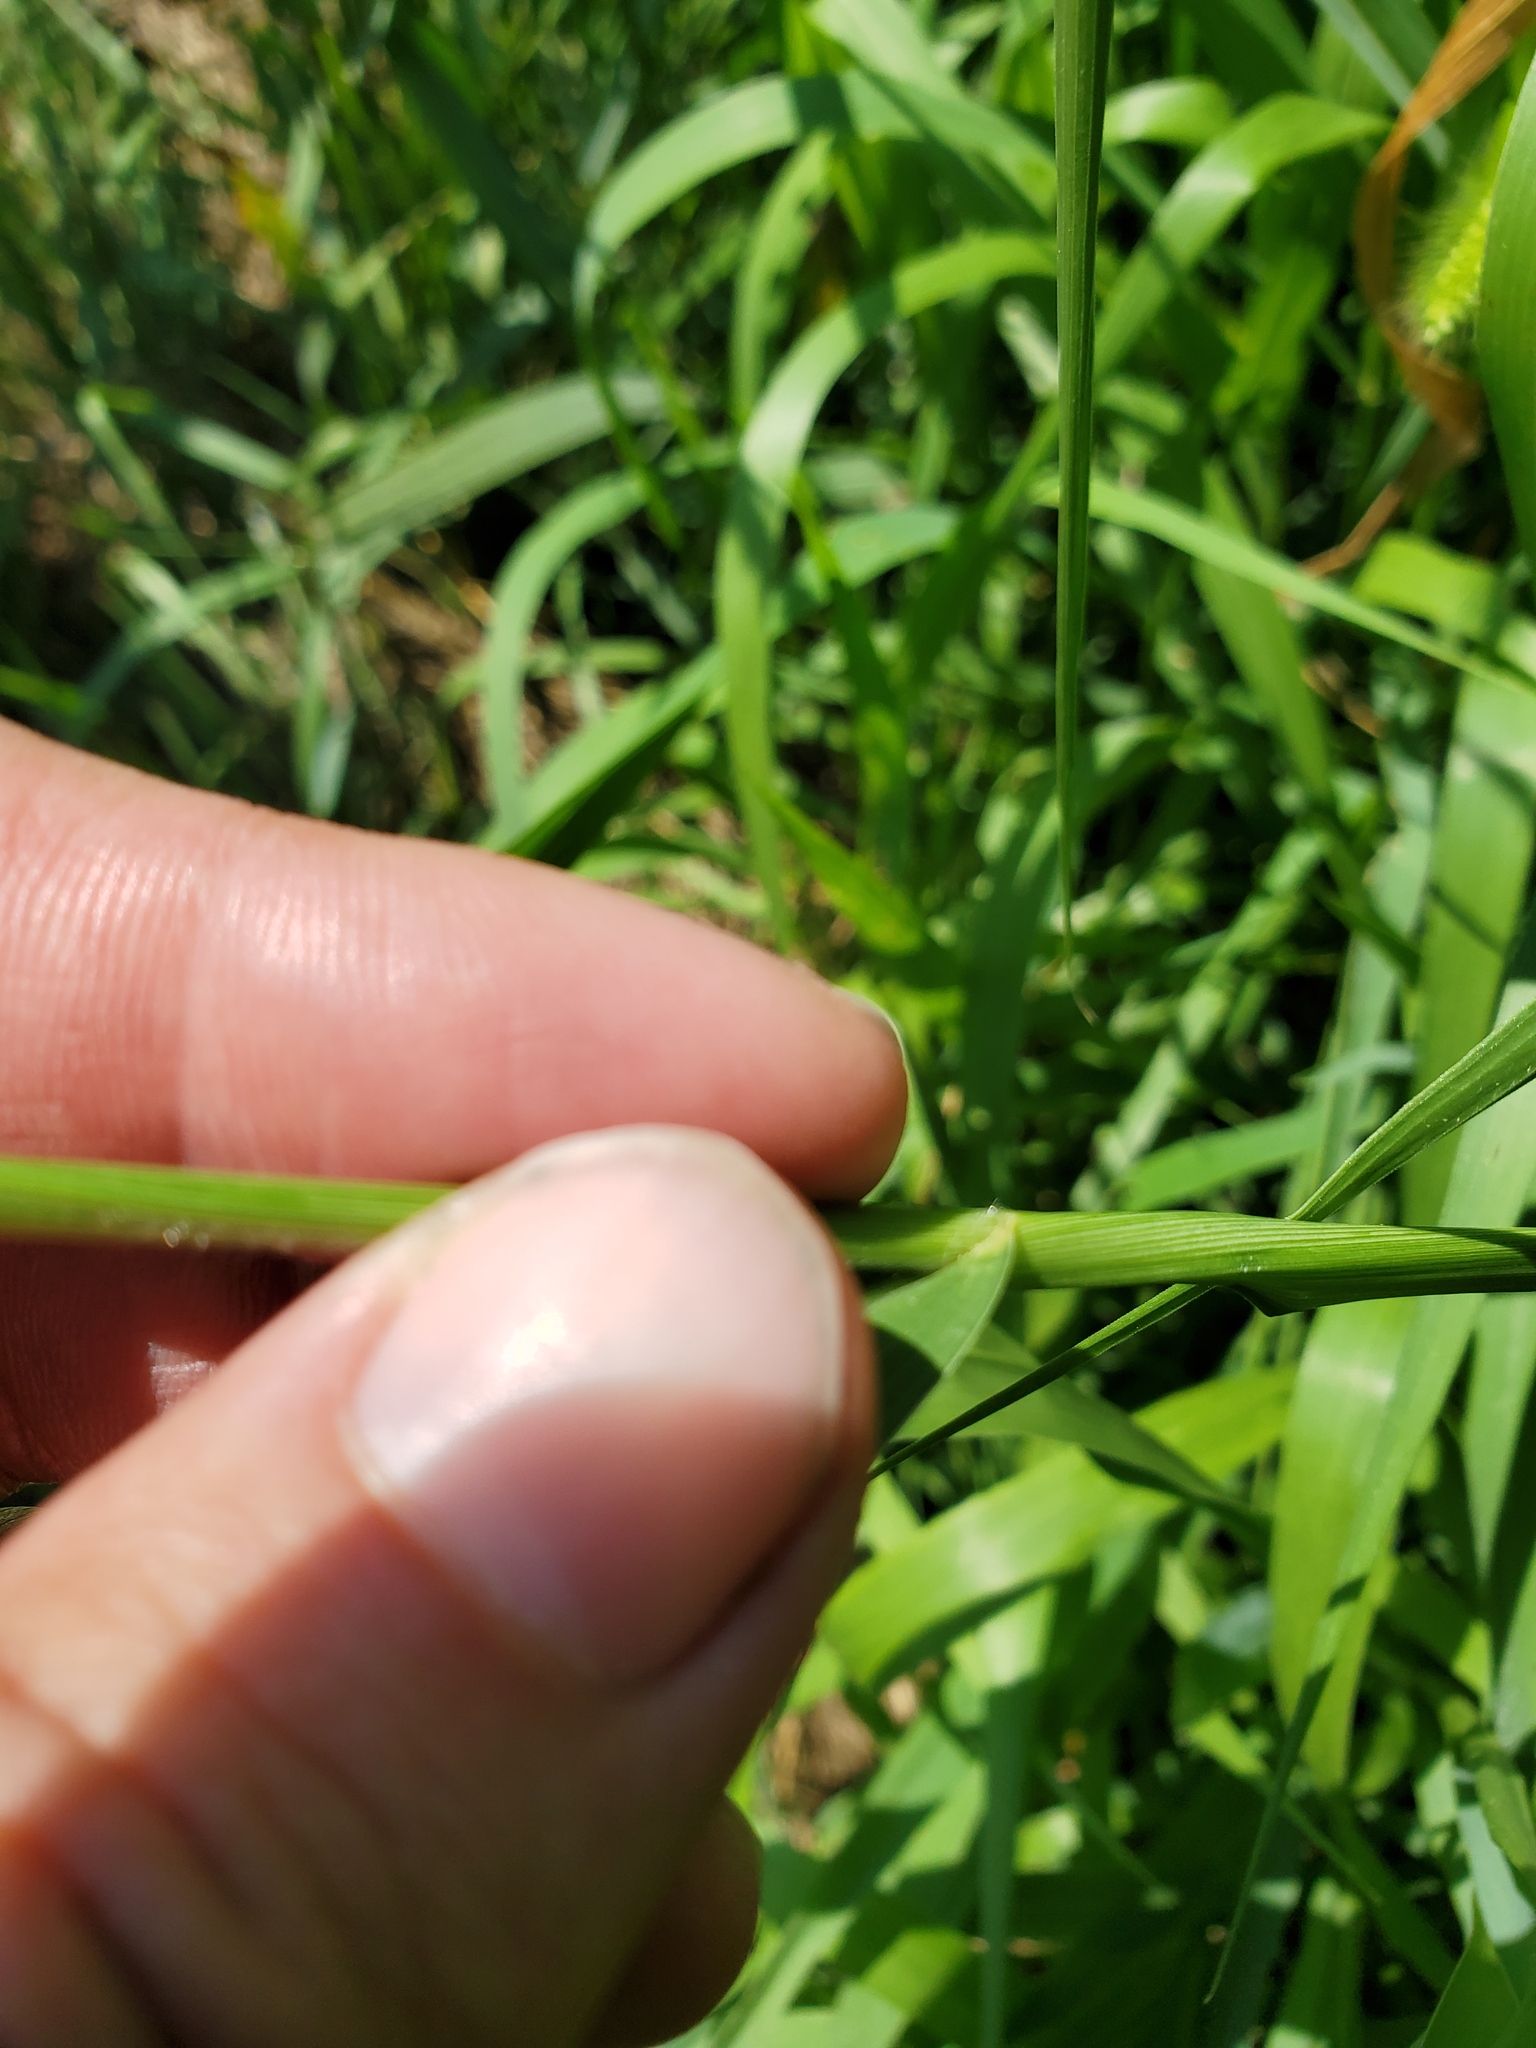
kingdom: Plantae
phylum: Tracheophyta
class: Liliopsida
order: Poales
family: Poaceae
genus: Setaria
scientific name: Setaria faberi
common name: Nodding bristle-grass
